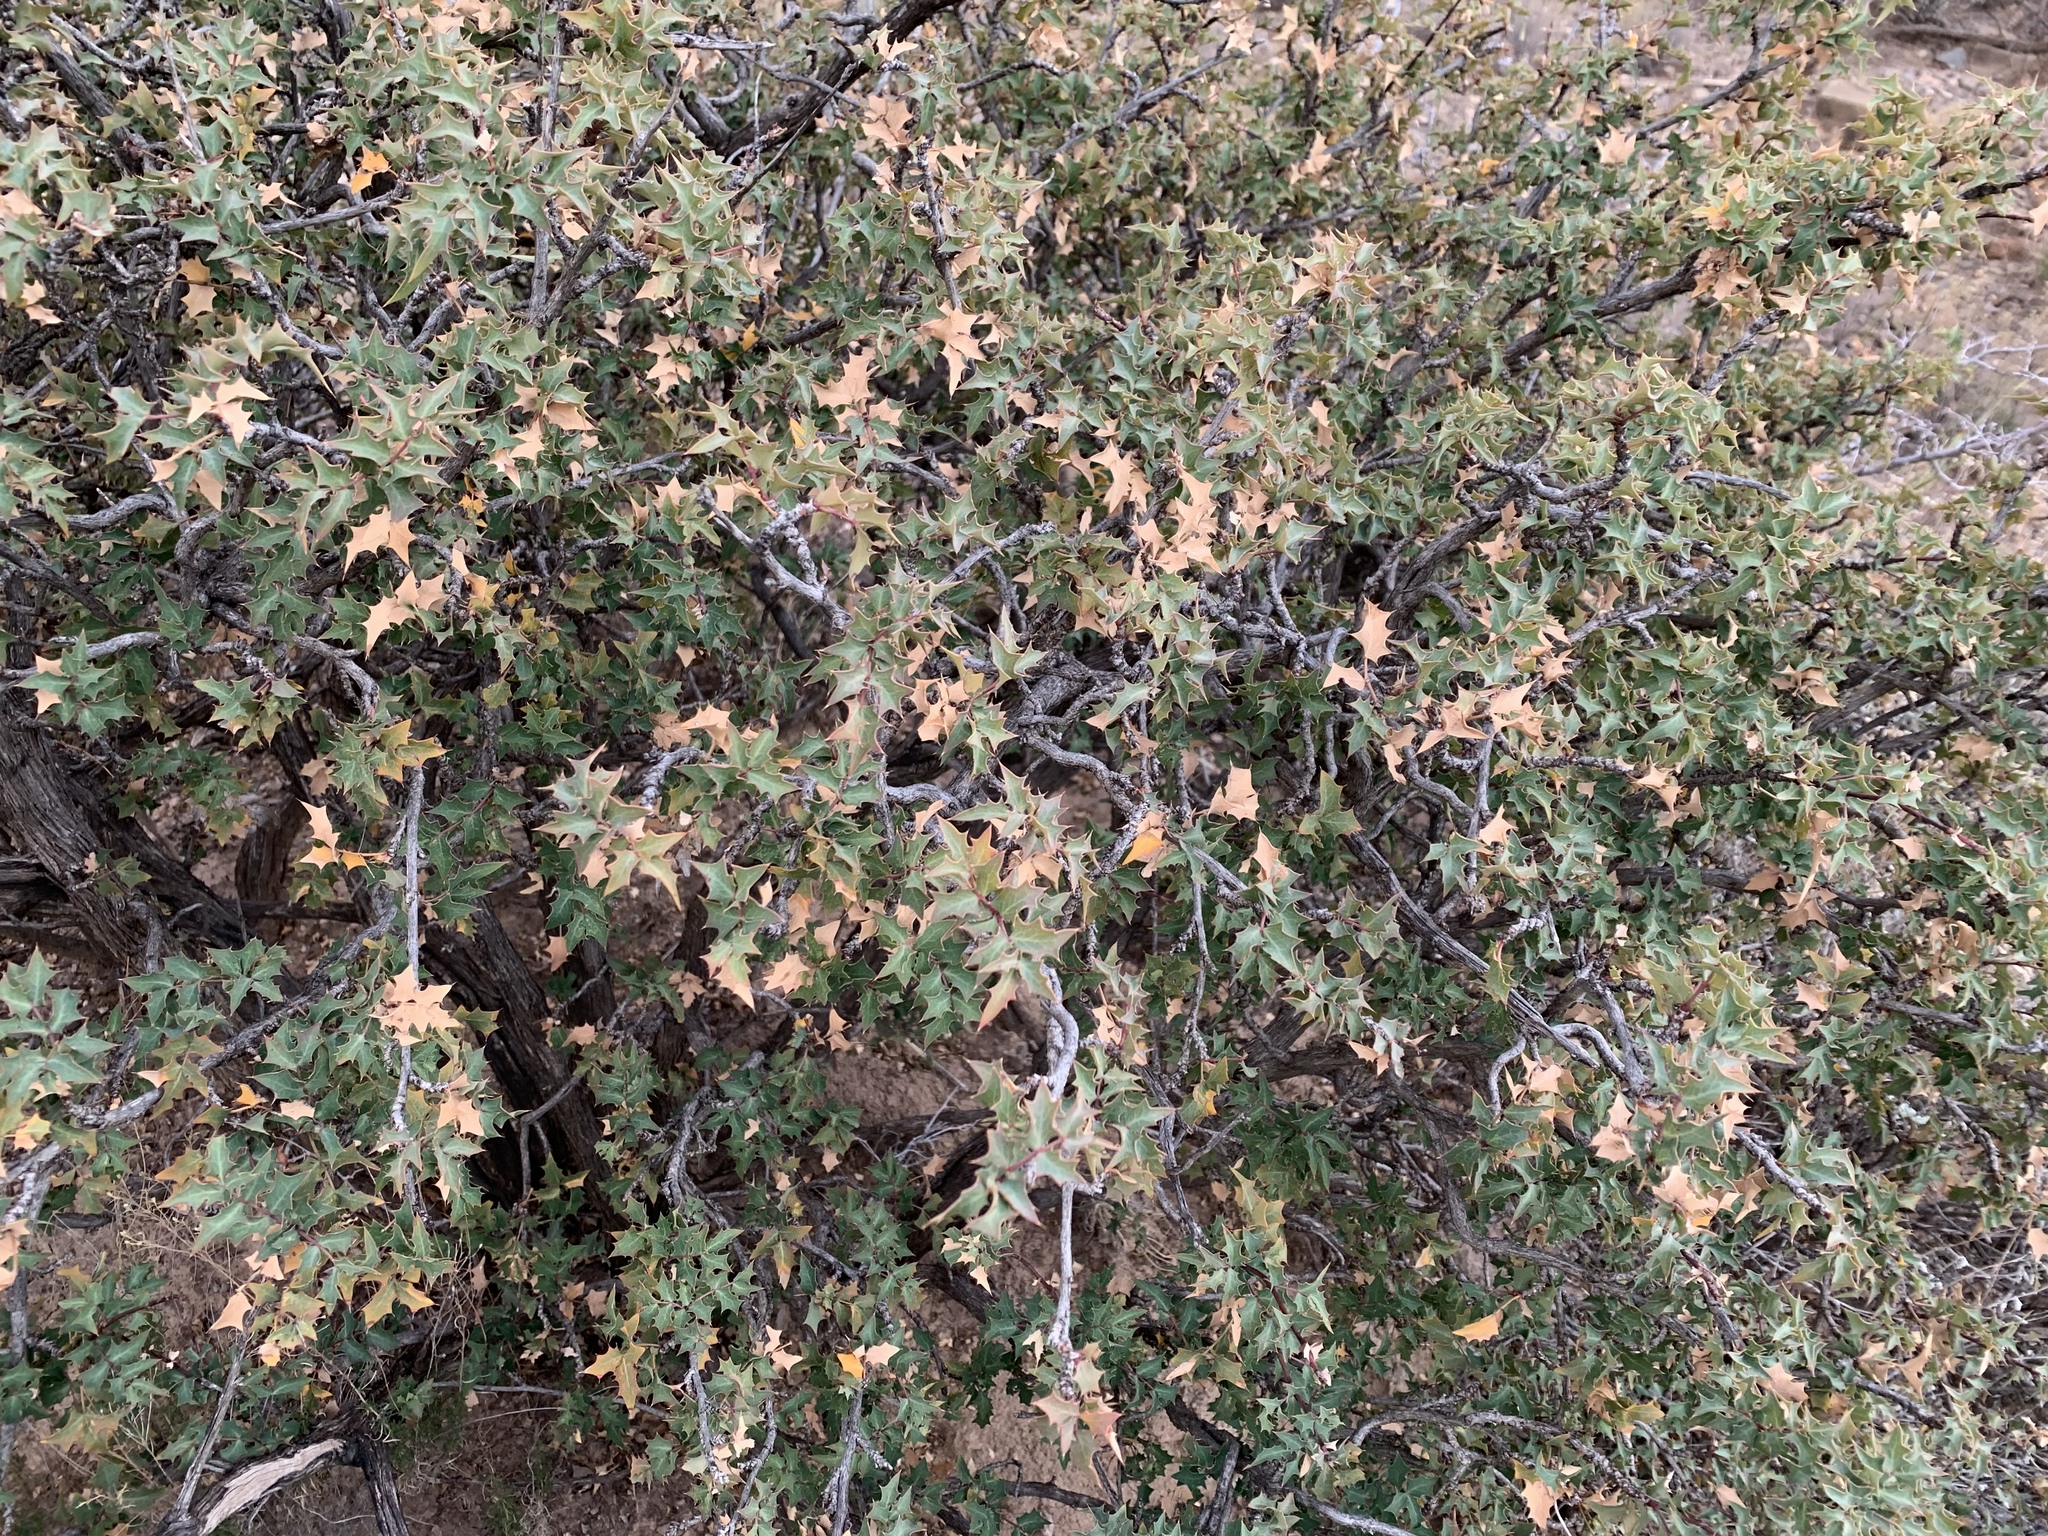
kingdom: Plantae
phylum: Tracheophyta
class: Magnoliopsida
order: Ranunculales
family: Berberidaceae
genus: Alloberberis
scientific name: Alloberberis haematocarpa
